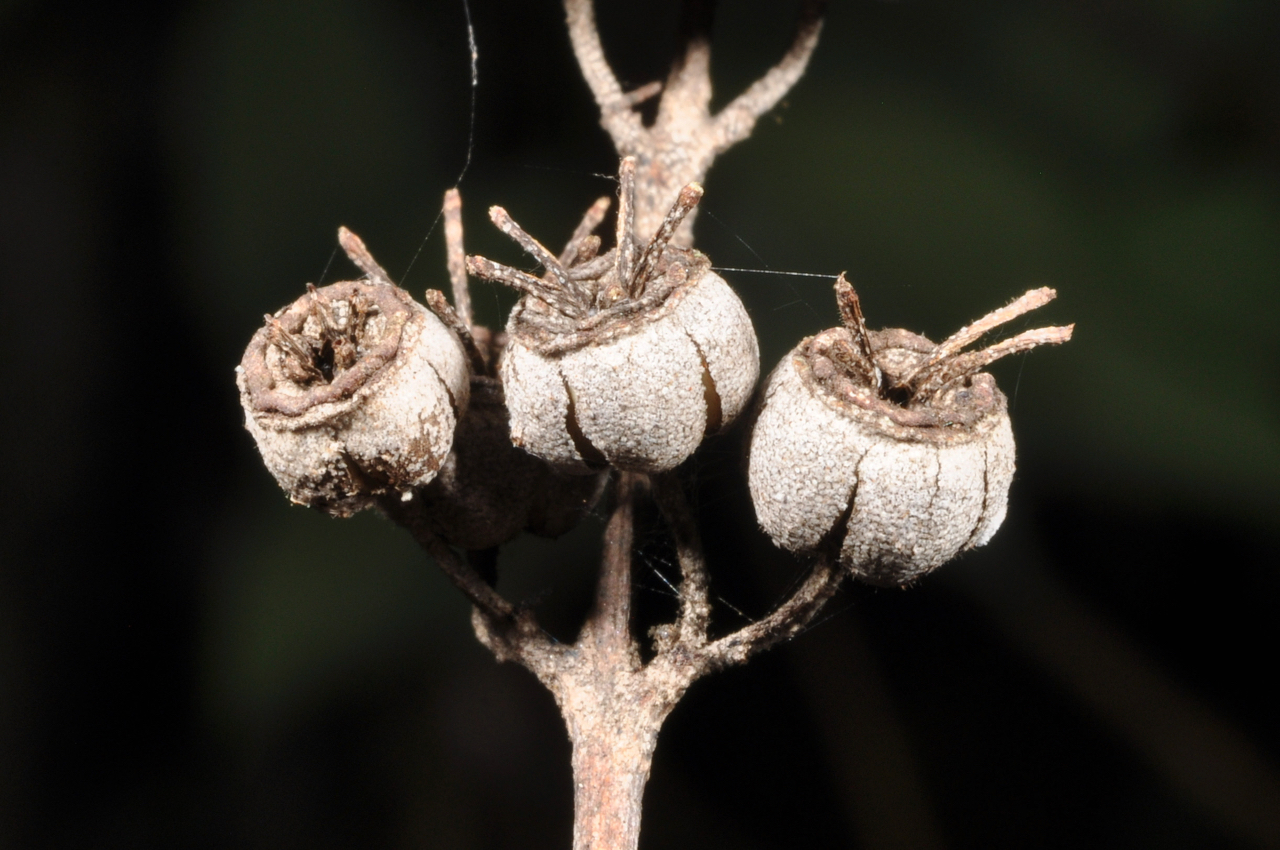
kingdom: Plantae
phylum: Tracheophyta
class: Magnoliopsida
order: Cornales
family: Hydrangeaceae
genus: Deutzia
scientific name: Deutzia pulchra
